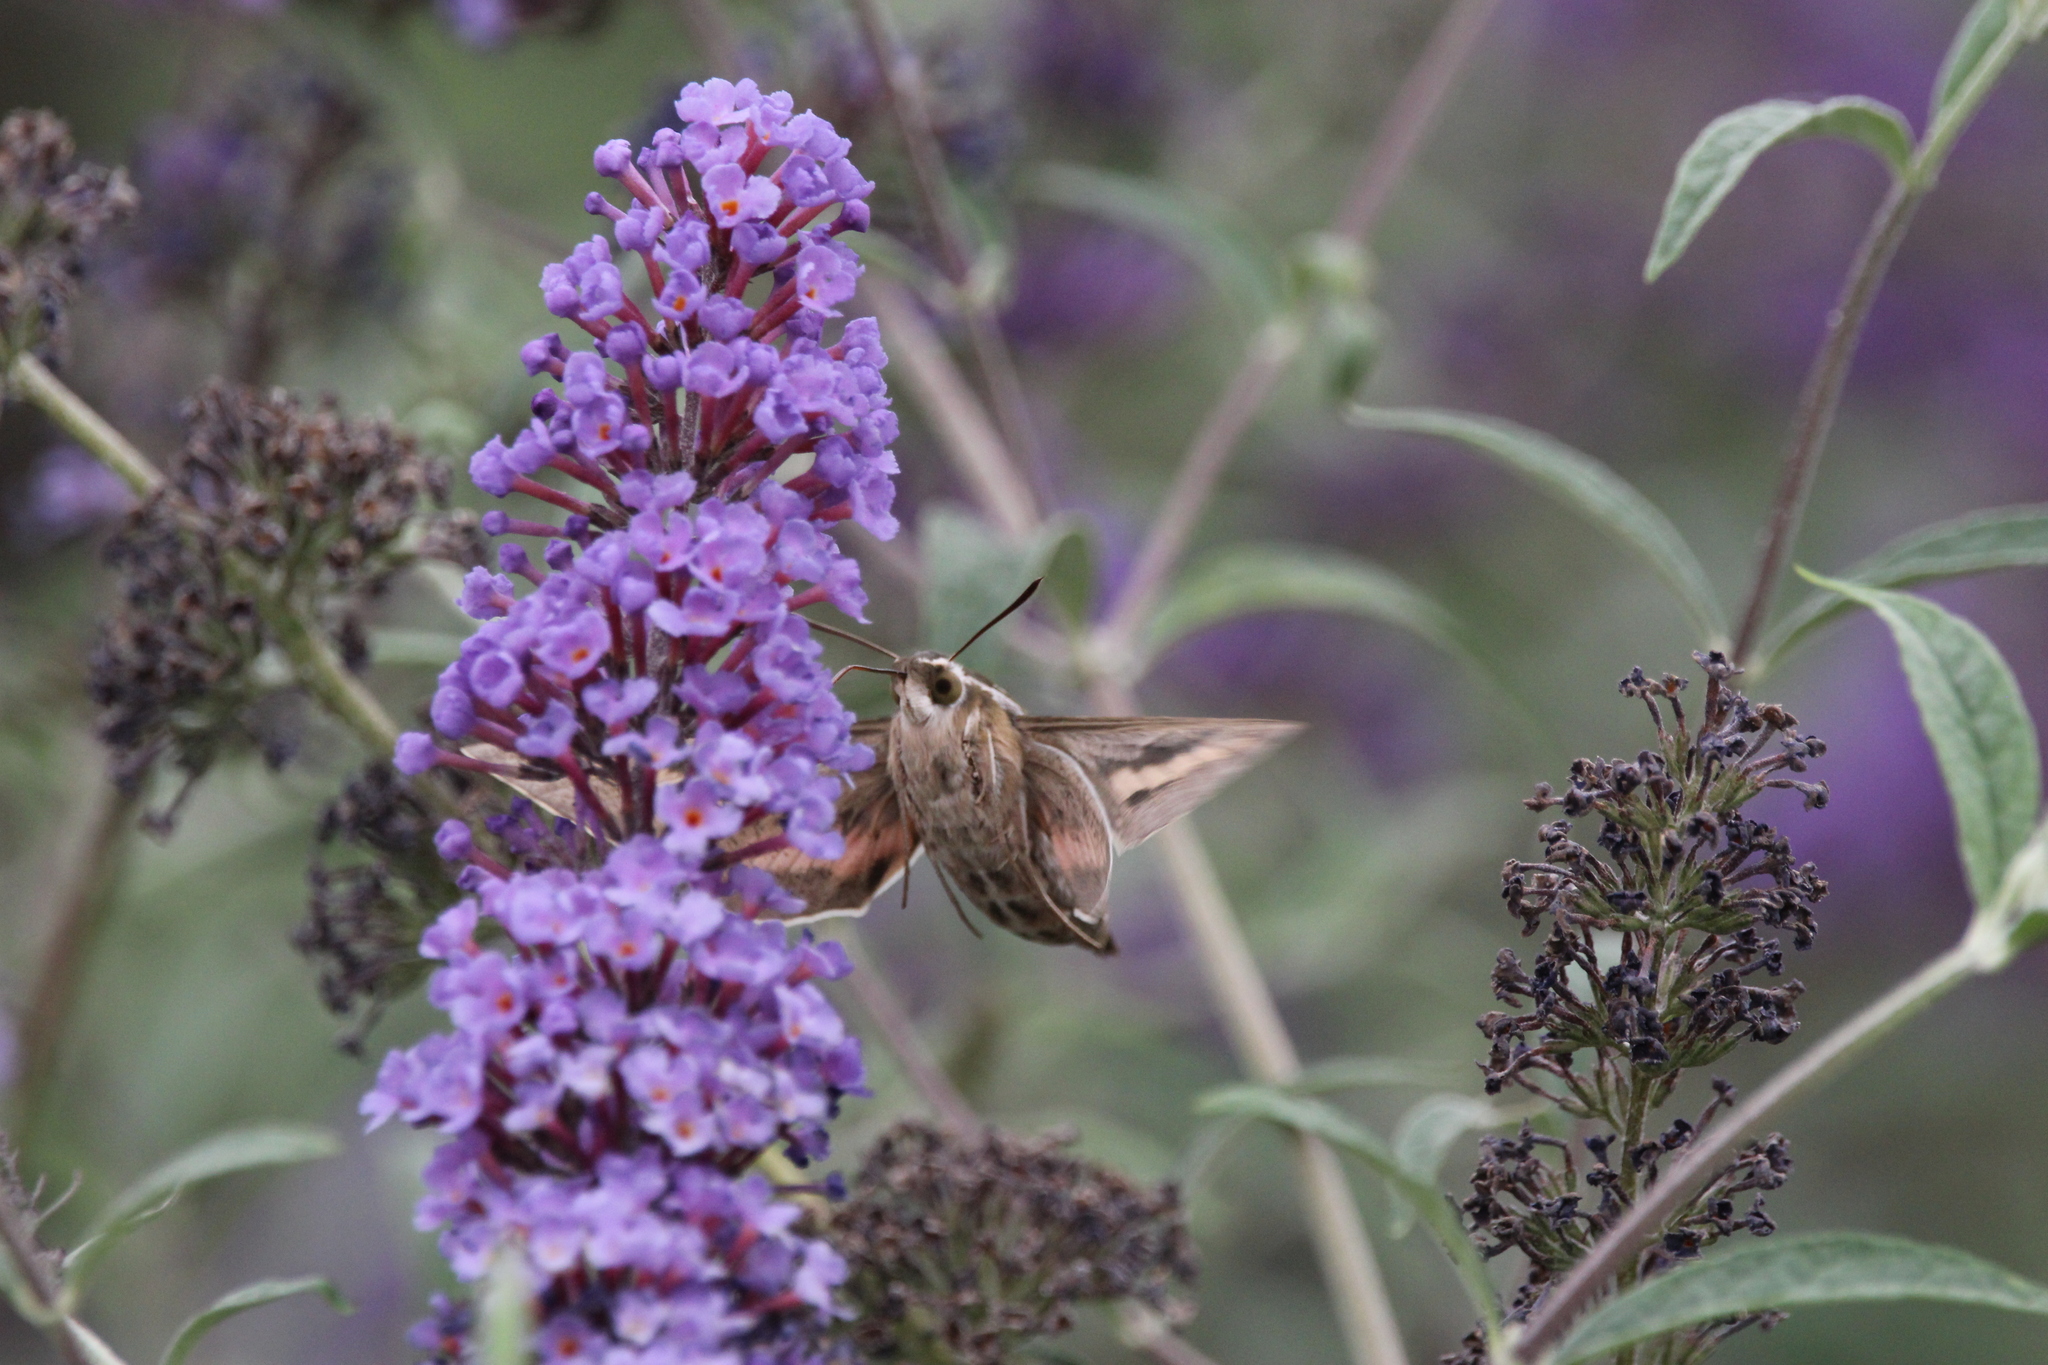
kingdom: Animalia
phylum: Arthropoda
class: Insecta
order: Lepidoptera
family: Sphingidae
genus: Hyles
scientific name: Hyles lineata
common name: White-lined sphinx
